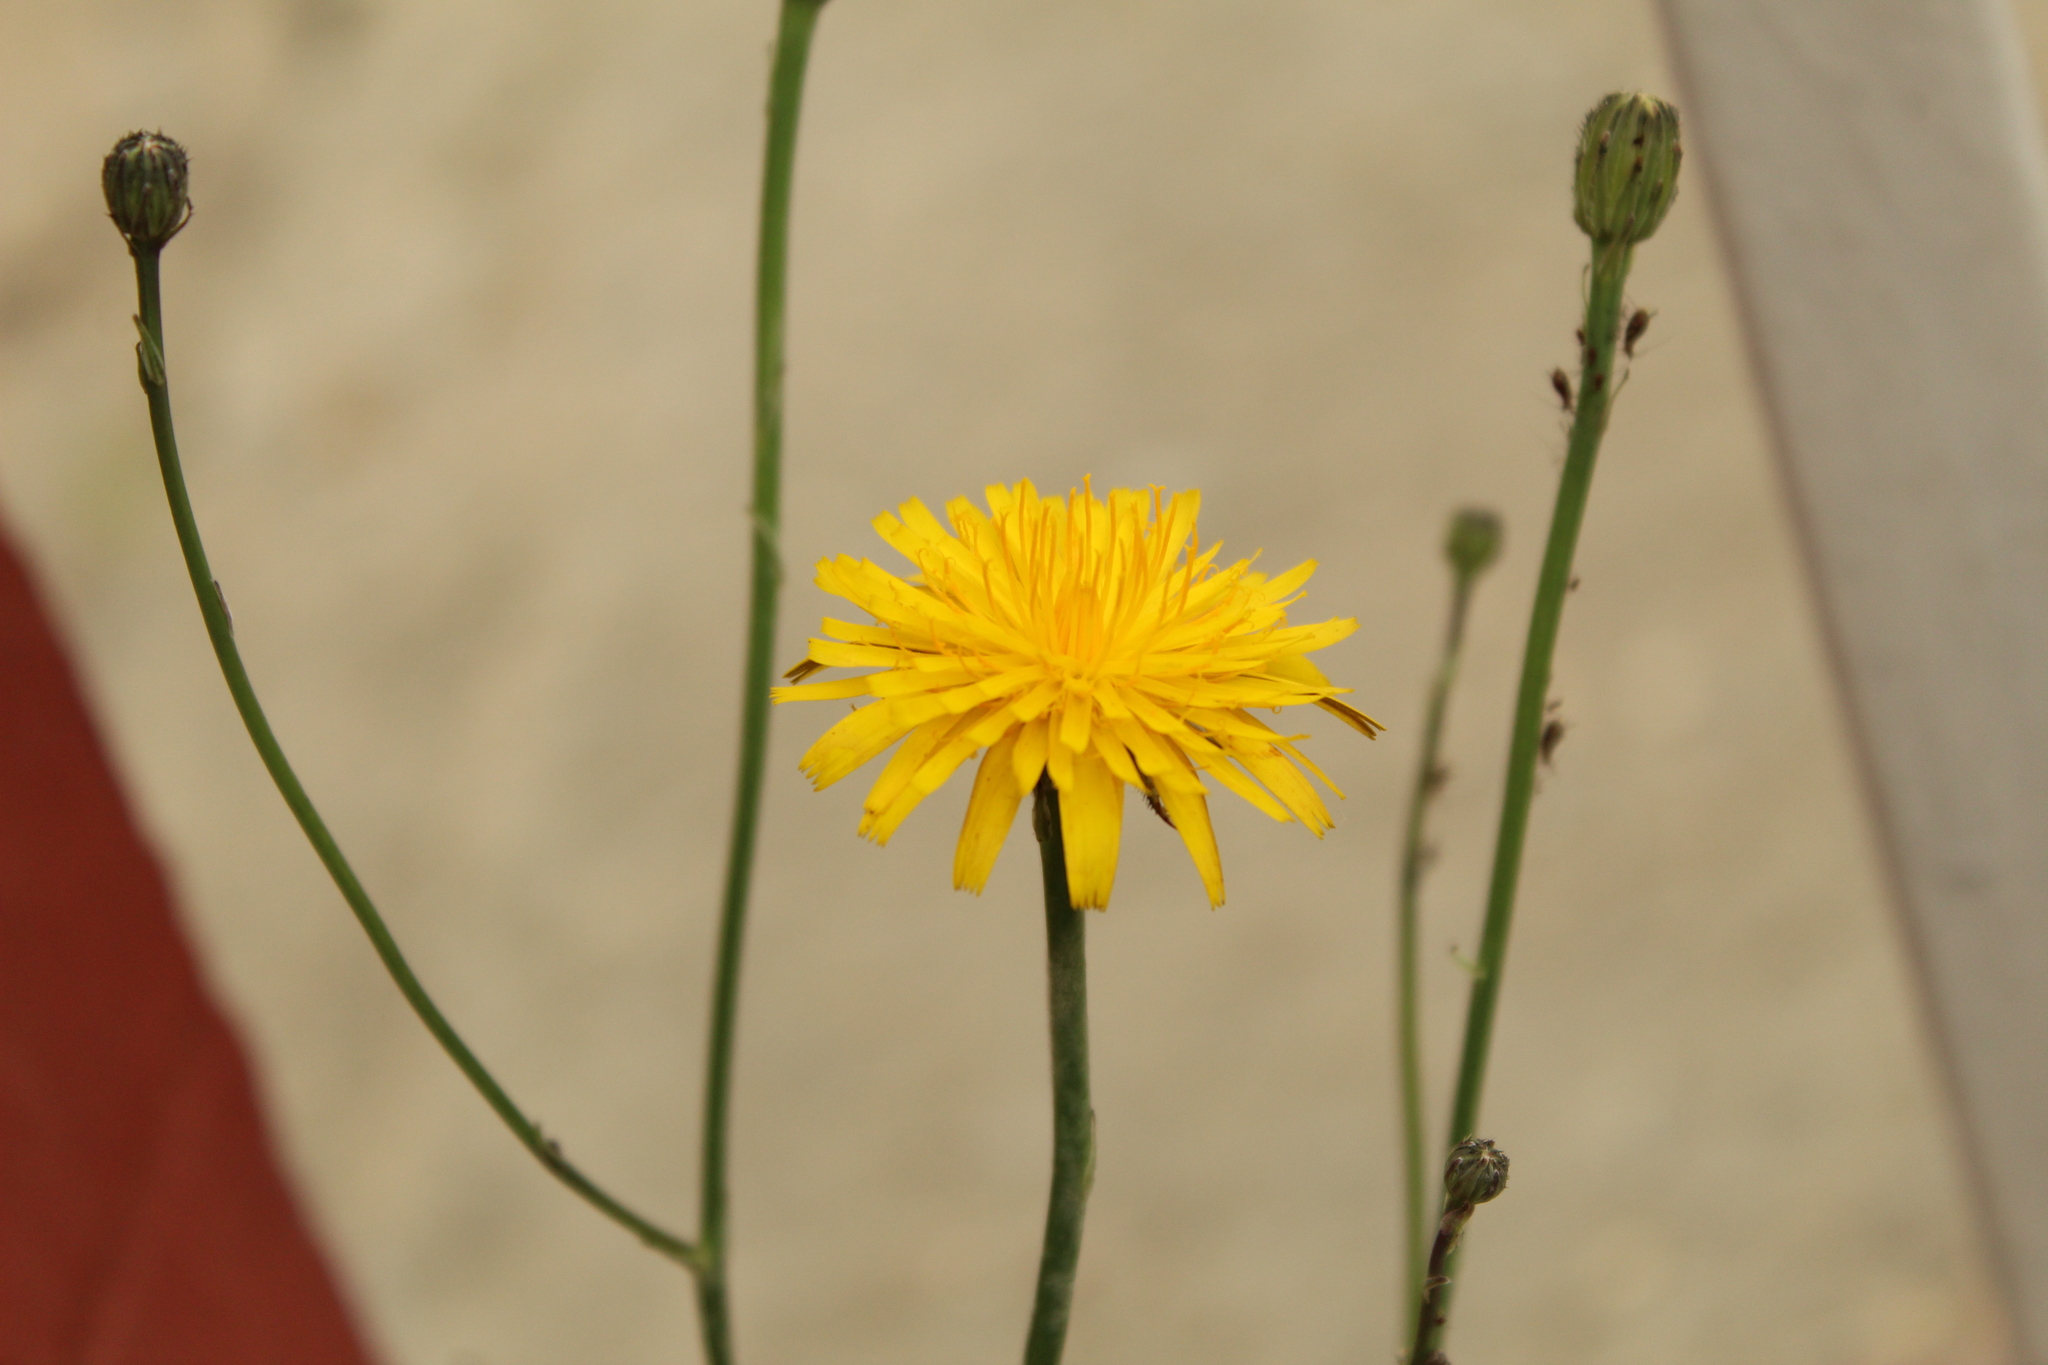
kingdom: Plantae
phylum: Tracheophyta
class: Magnoliopsida
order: Asterales
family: Asteraceae
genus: Hypochaeris
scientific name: Hypochaeris radicata
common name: Flatweed
